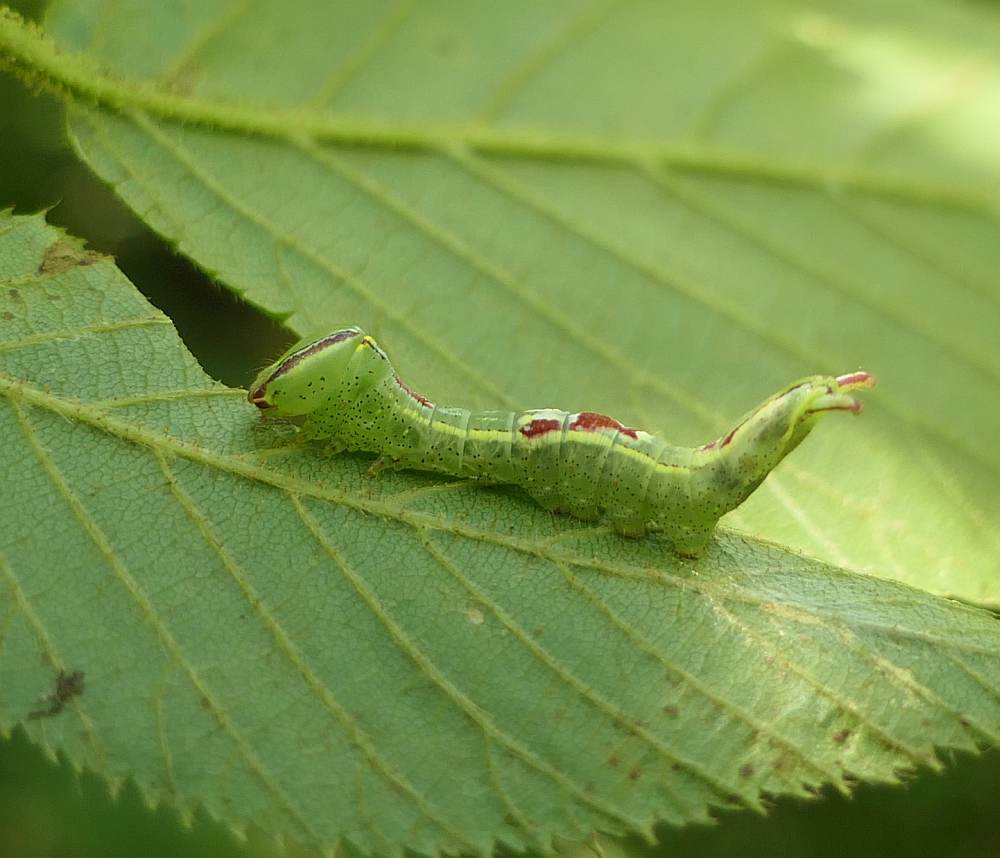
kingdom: Animalia
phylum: Arthropoda
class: Insecta
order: Lepidoptera
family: Notodontidae
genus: Disphragis
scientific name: Disphragis Cecrita guttivitta
